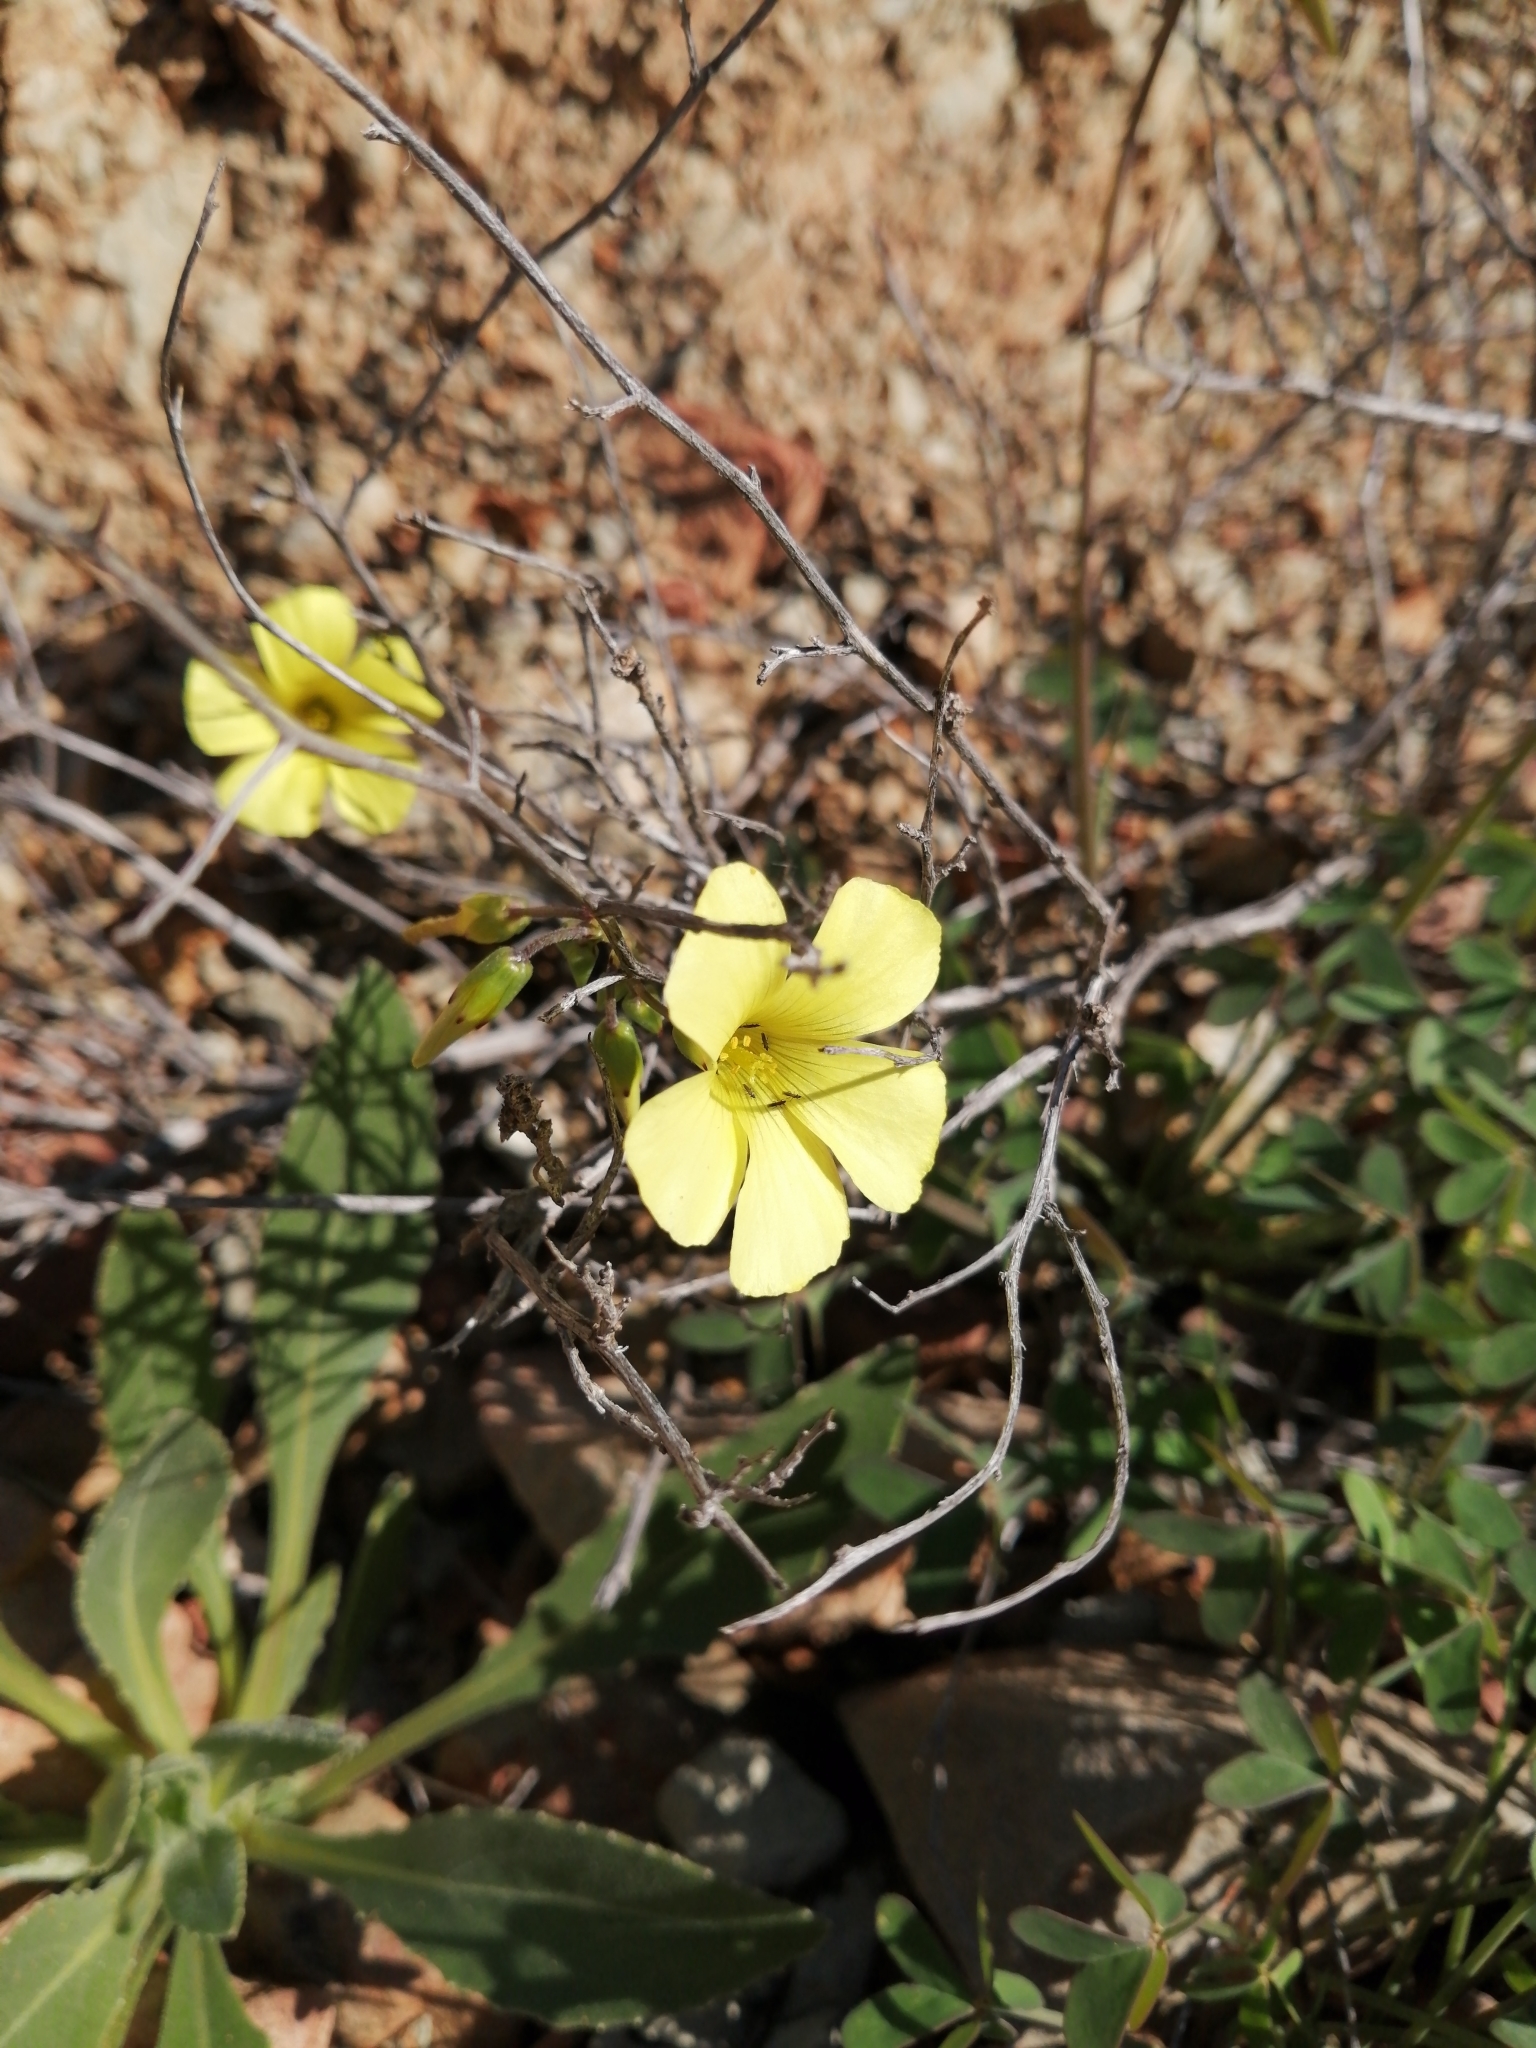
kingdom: Plantae
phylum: Tracheophyta
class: Magnoliopsida
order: Oxalidales
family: Oxalidaceae
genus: Oxalis
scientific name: Oxalis pes-caprae
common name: Bermuda-buttercup
